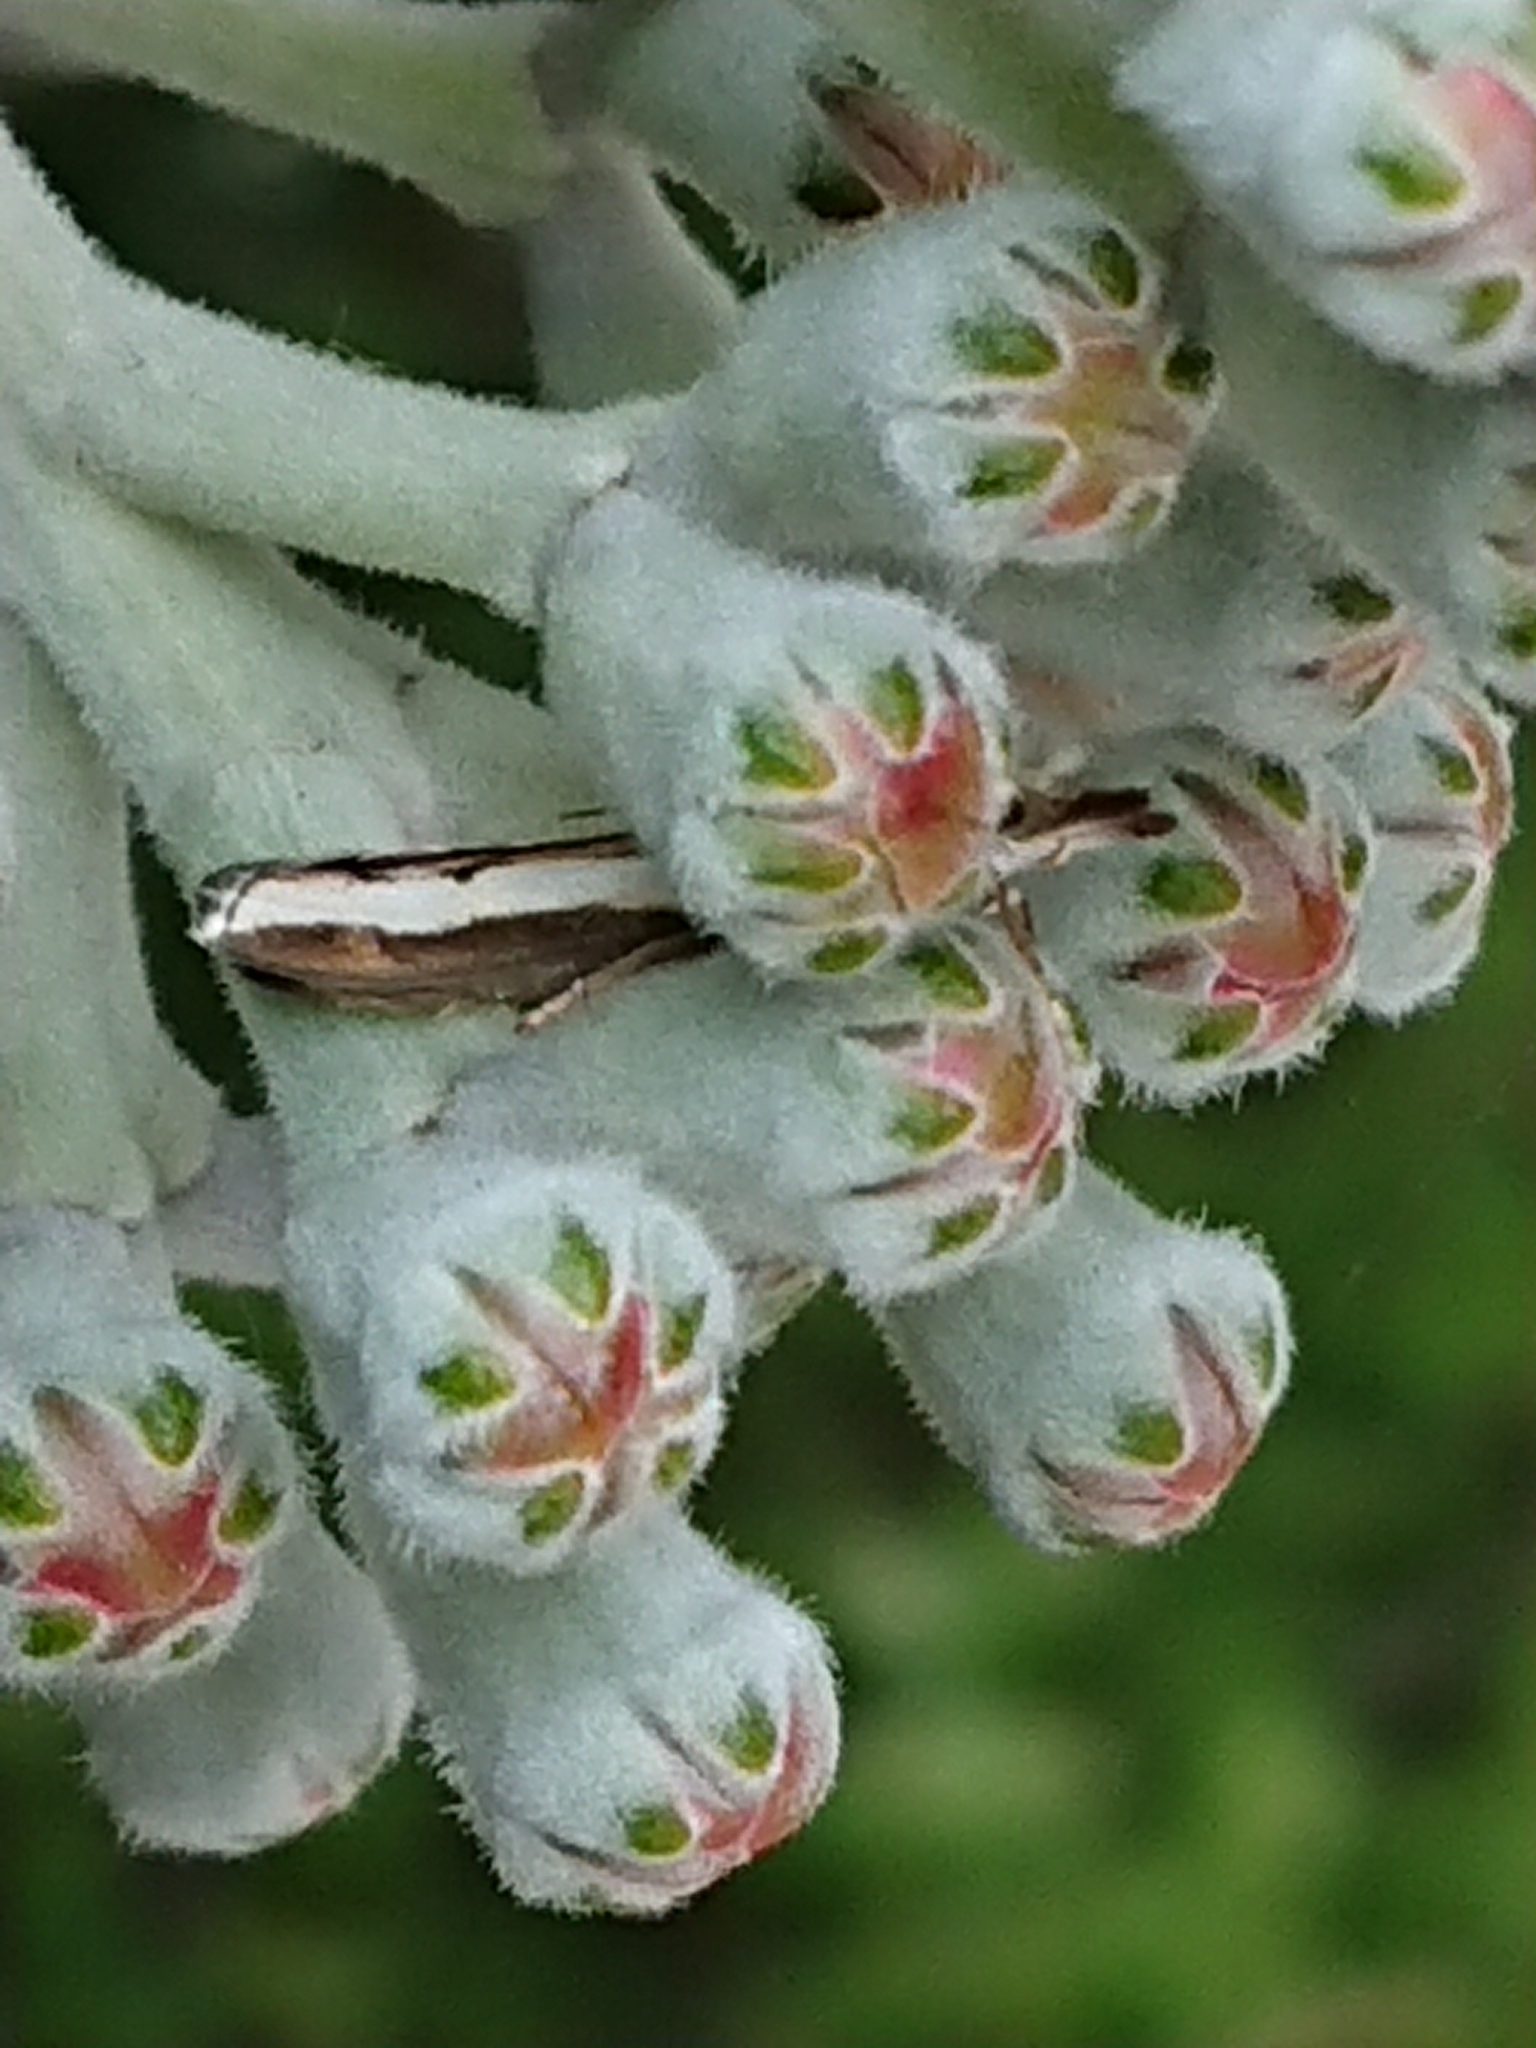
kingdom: Animalia
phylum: Arthropoda
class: Insecta
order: Lepidoptera
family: Crambidae
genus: Orocrambus
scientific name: Orocrambus flexuosellus
